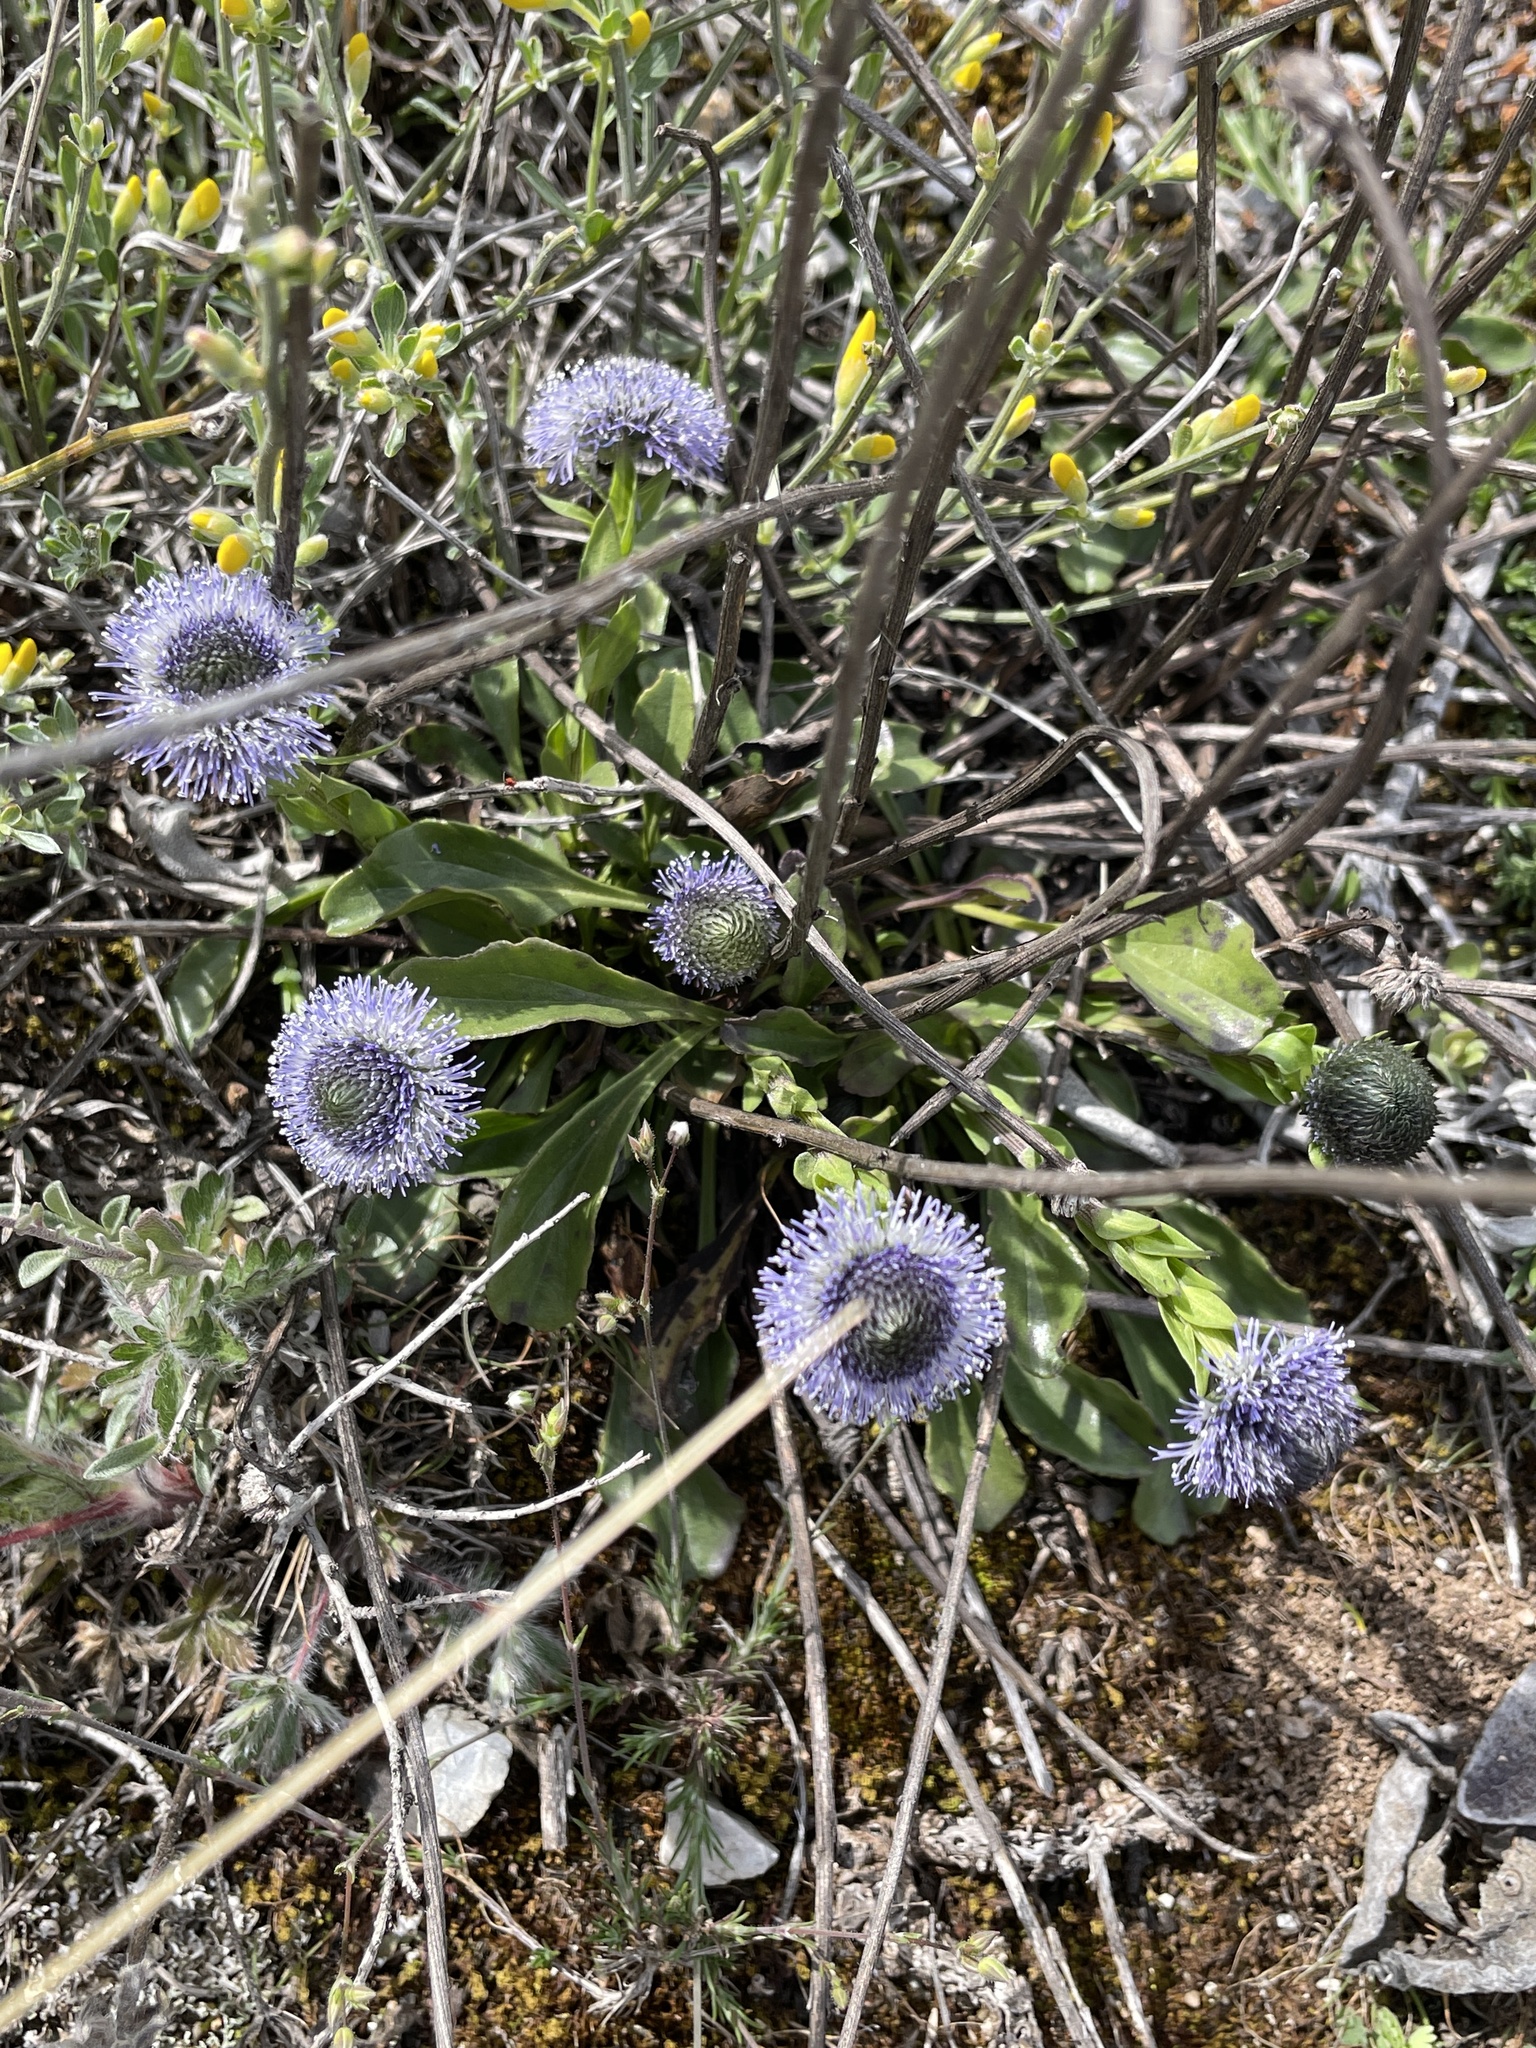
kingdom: Plantae
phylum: Tracheophyta
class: Magnoliopsida
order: Lamiales
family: Plantaginaceae
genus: Globularia
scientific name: Globularia bisnagarica
